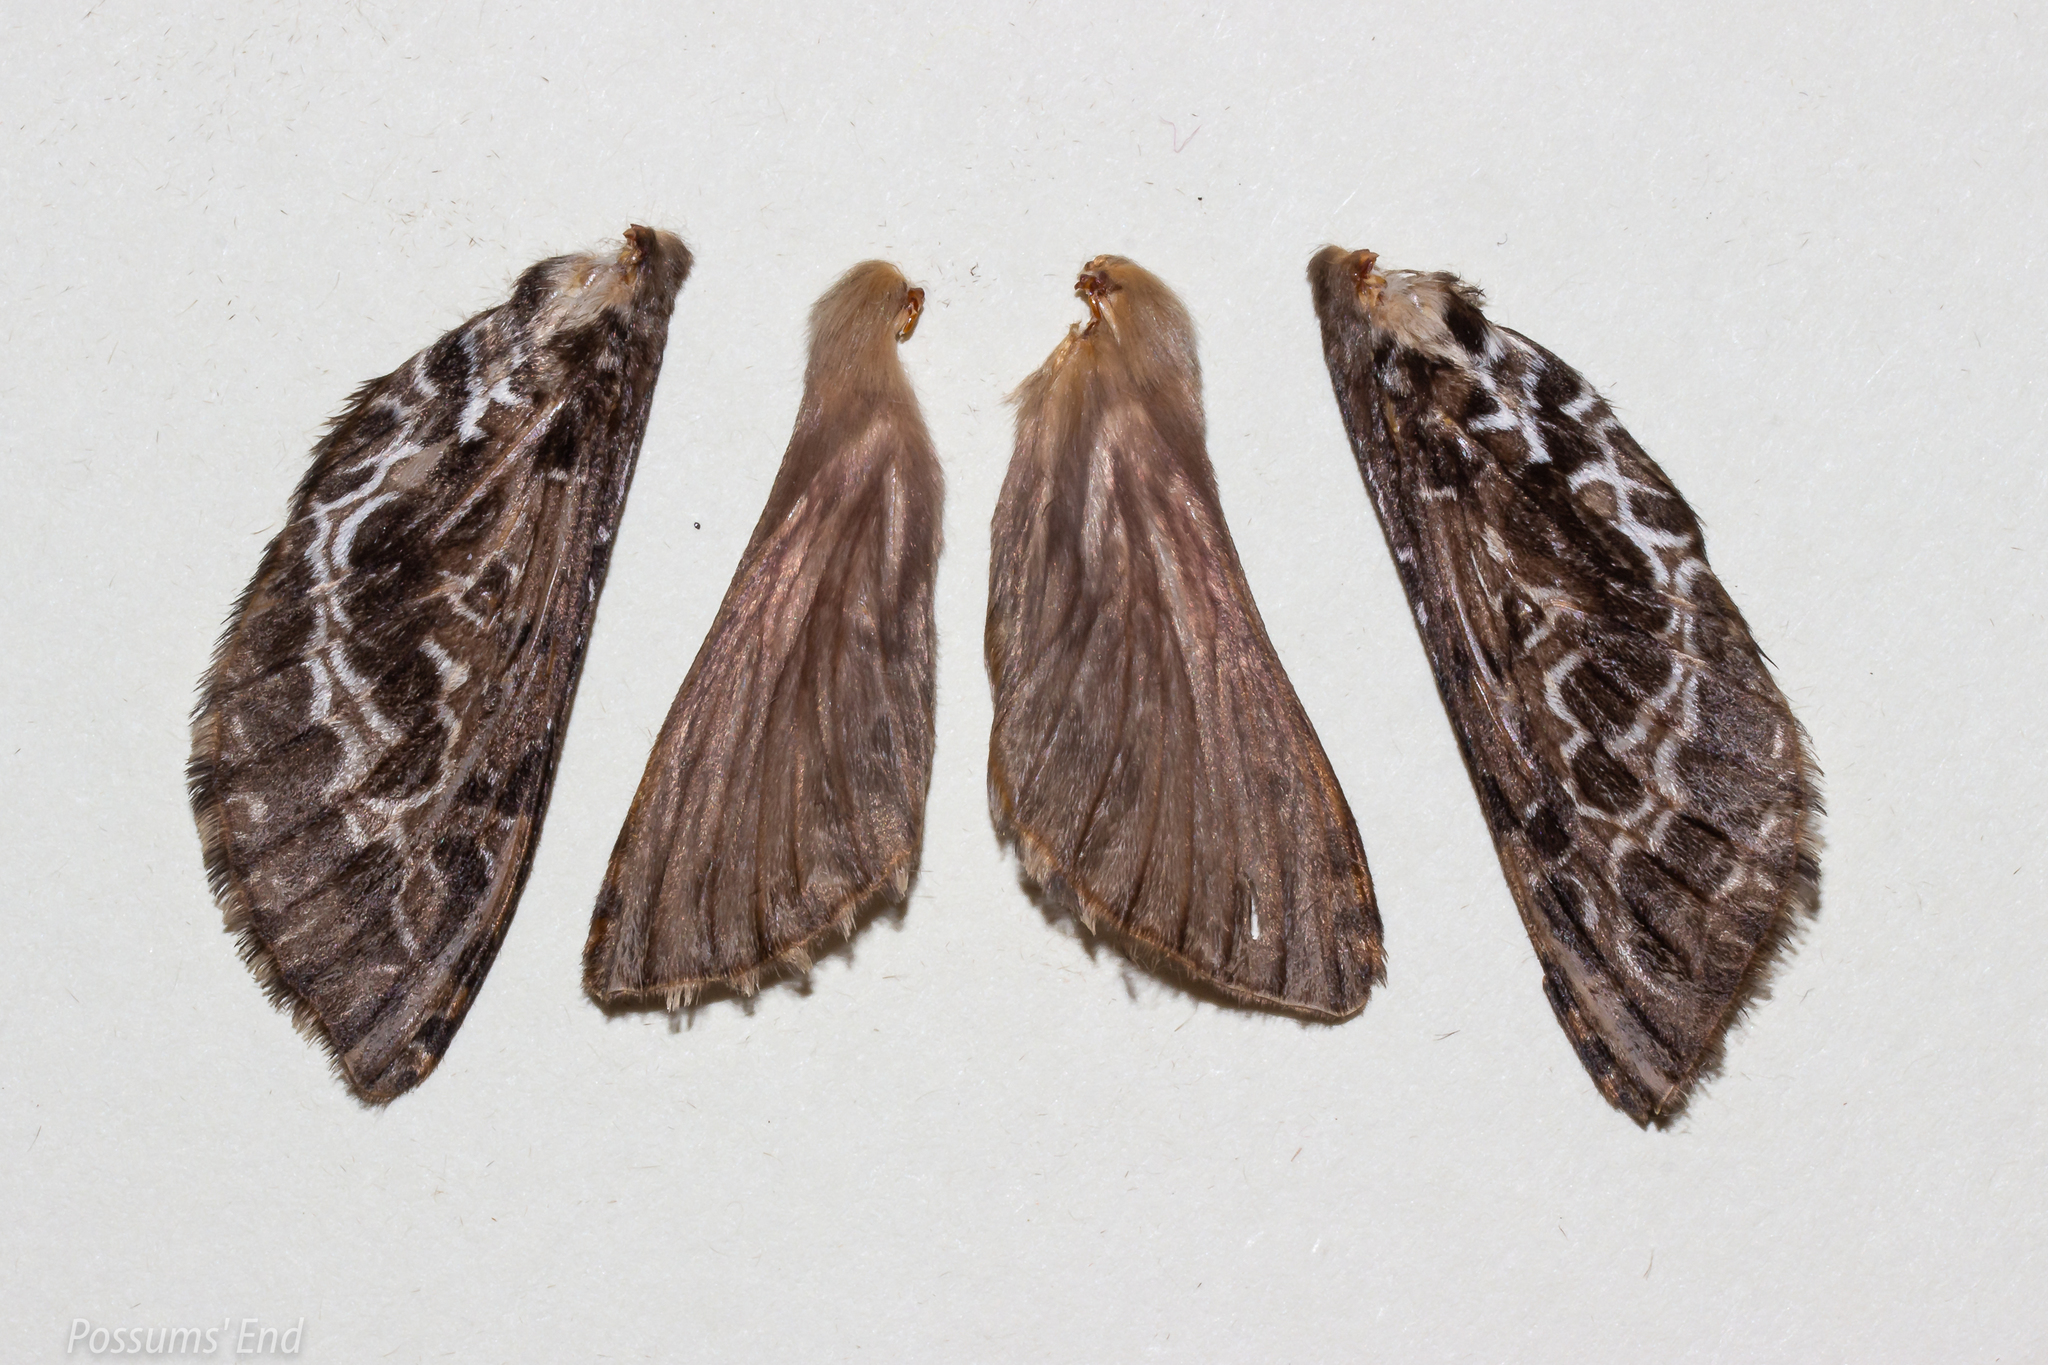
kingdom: Animalia
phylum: Arthropoda
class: Insecta
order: Lepidoptera
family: Hepialidae
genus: Aoraia
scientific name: Aoraia rufivena
